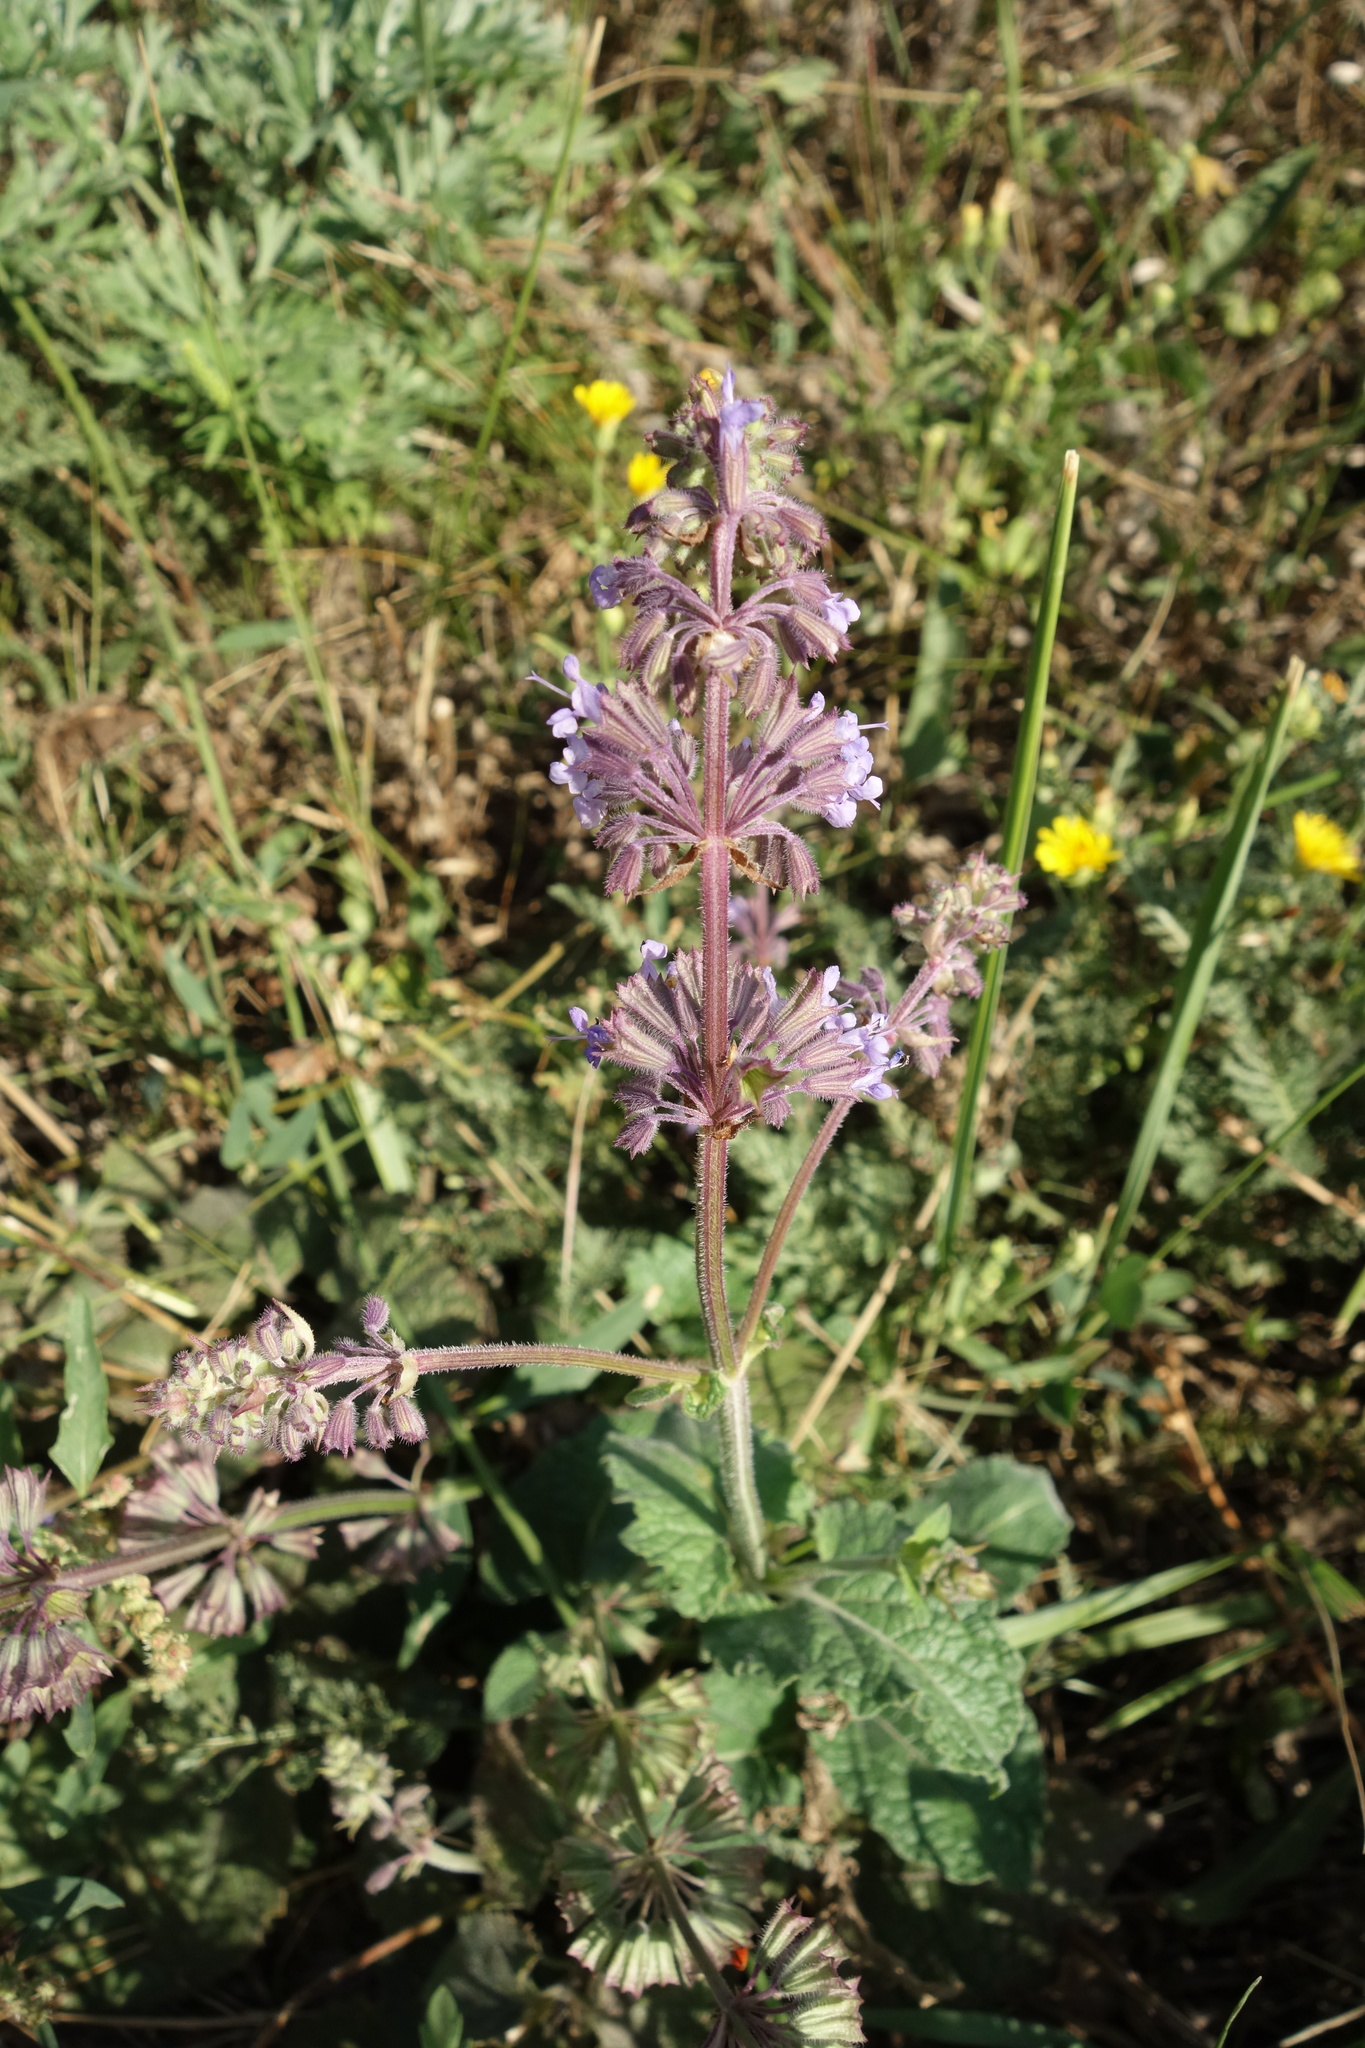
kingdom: Plantae
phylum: Tracheophyta
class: Magnoliopsida
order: Lamiales
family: Lamiaceae
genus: Salvia
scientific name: Salvia verticillata
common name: Whorled clary
